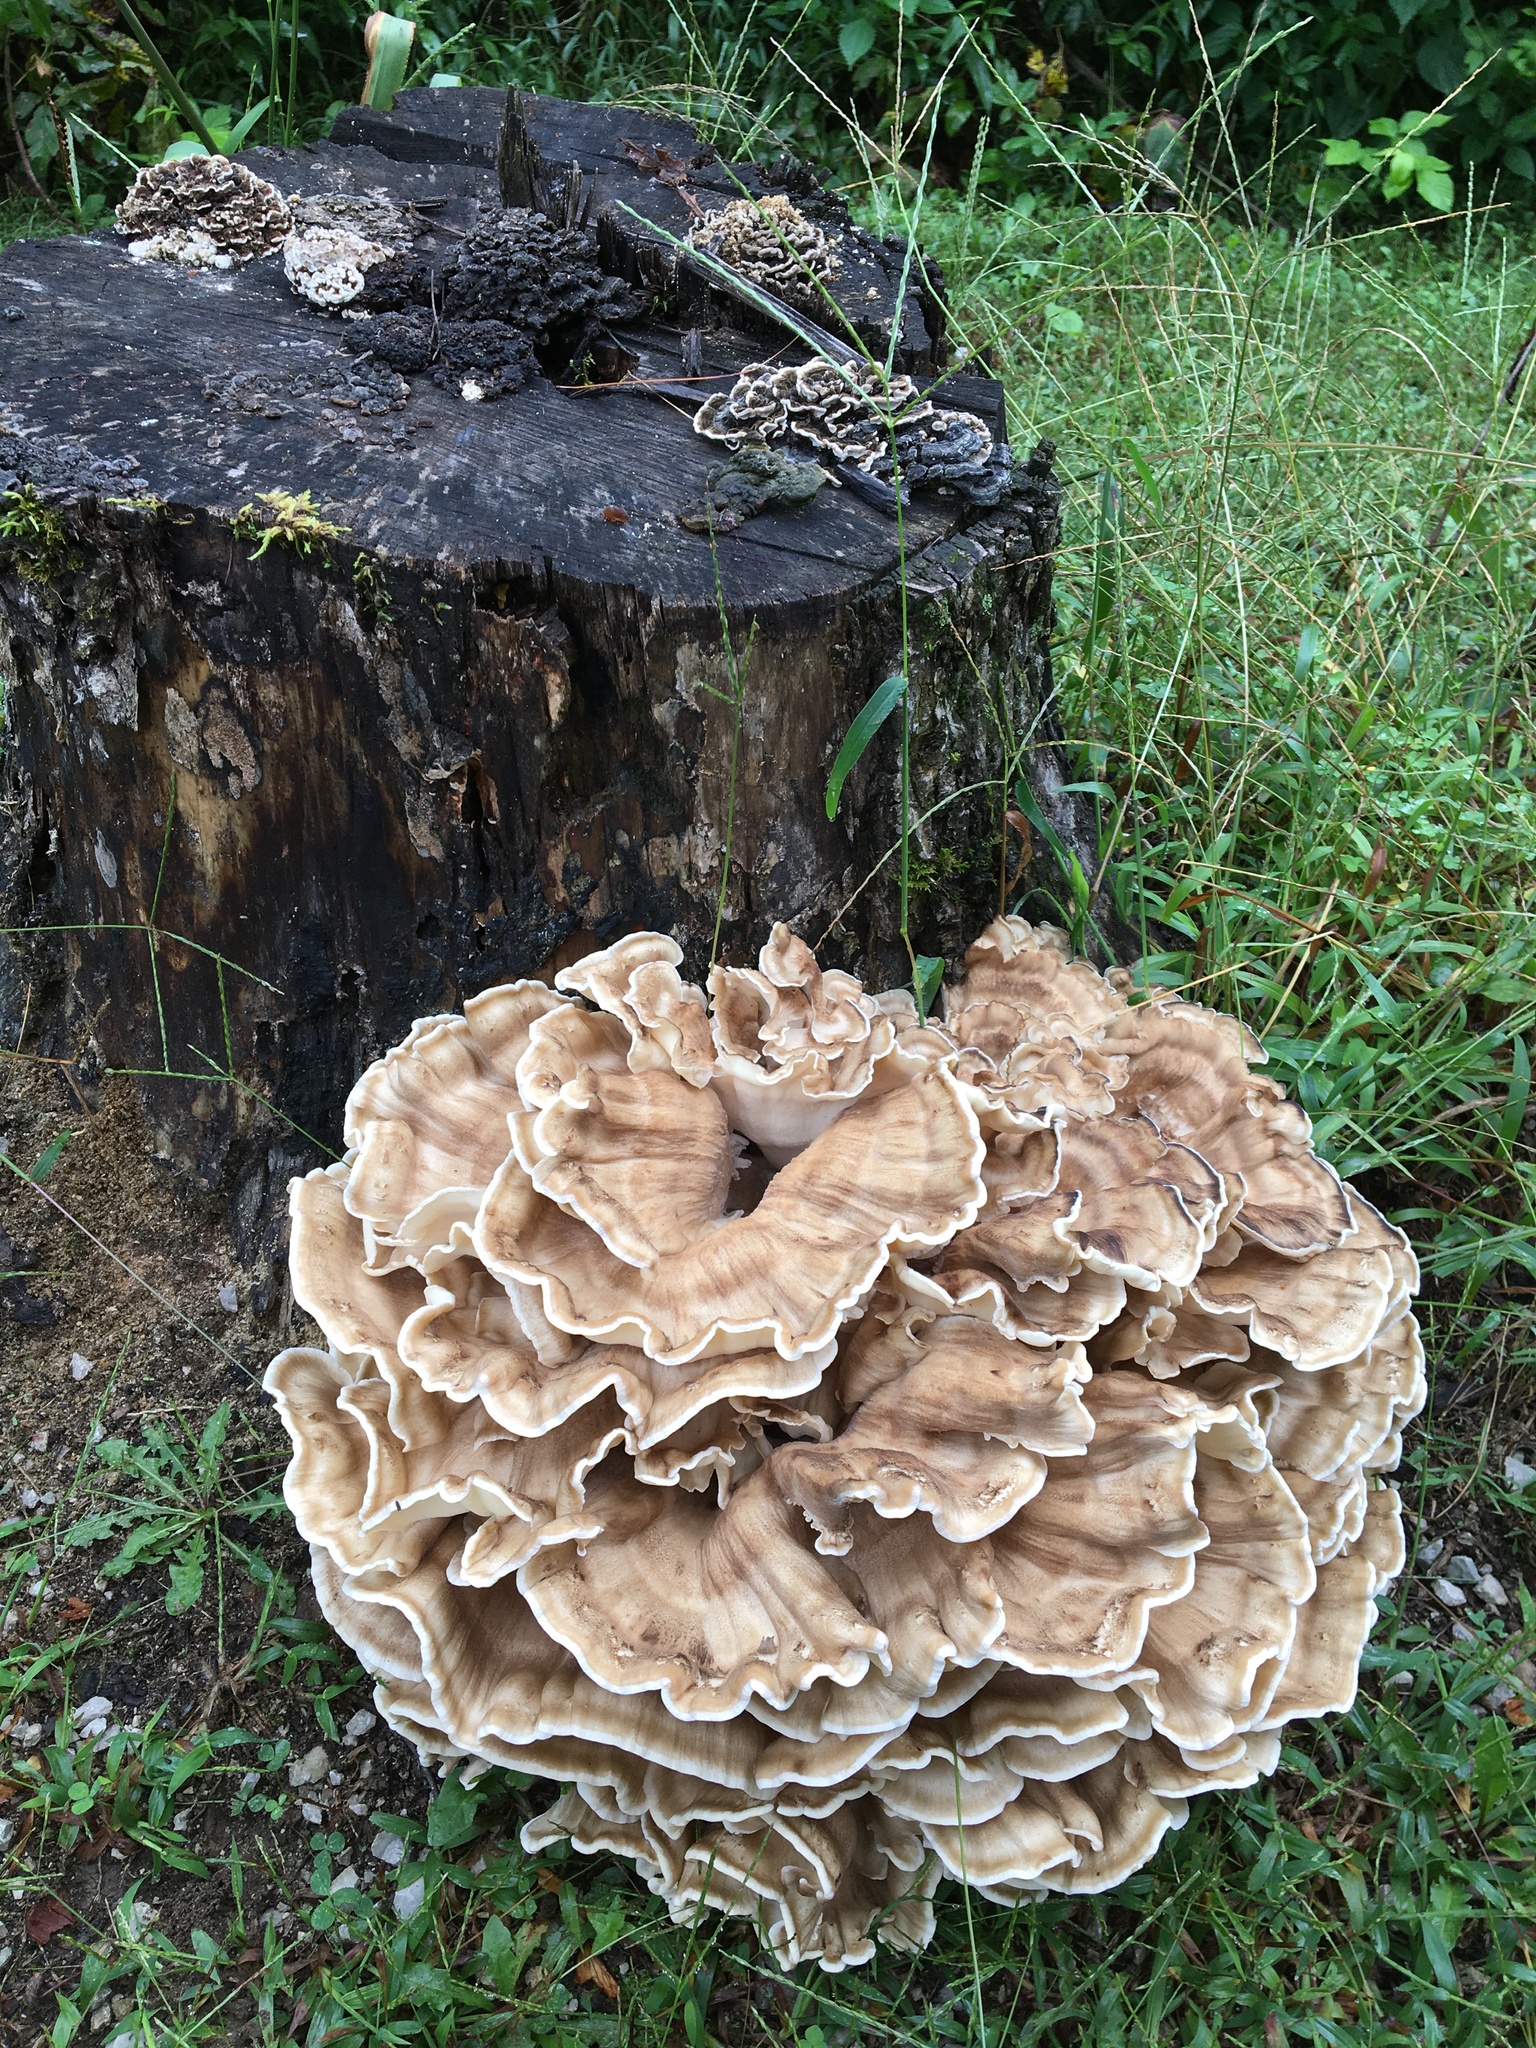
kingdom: Fungi
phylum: Basidiomycota
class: Agaricomycetes
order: Polyporales
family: Meripilaceae
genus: Meripilus
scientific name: Meripilus sumstinei
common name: Black-staining polypore
